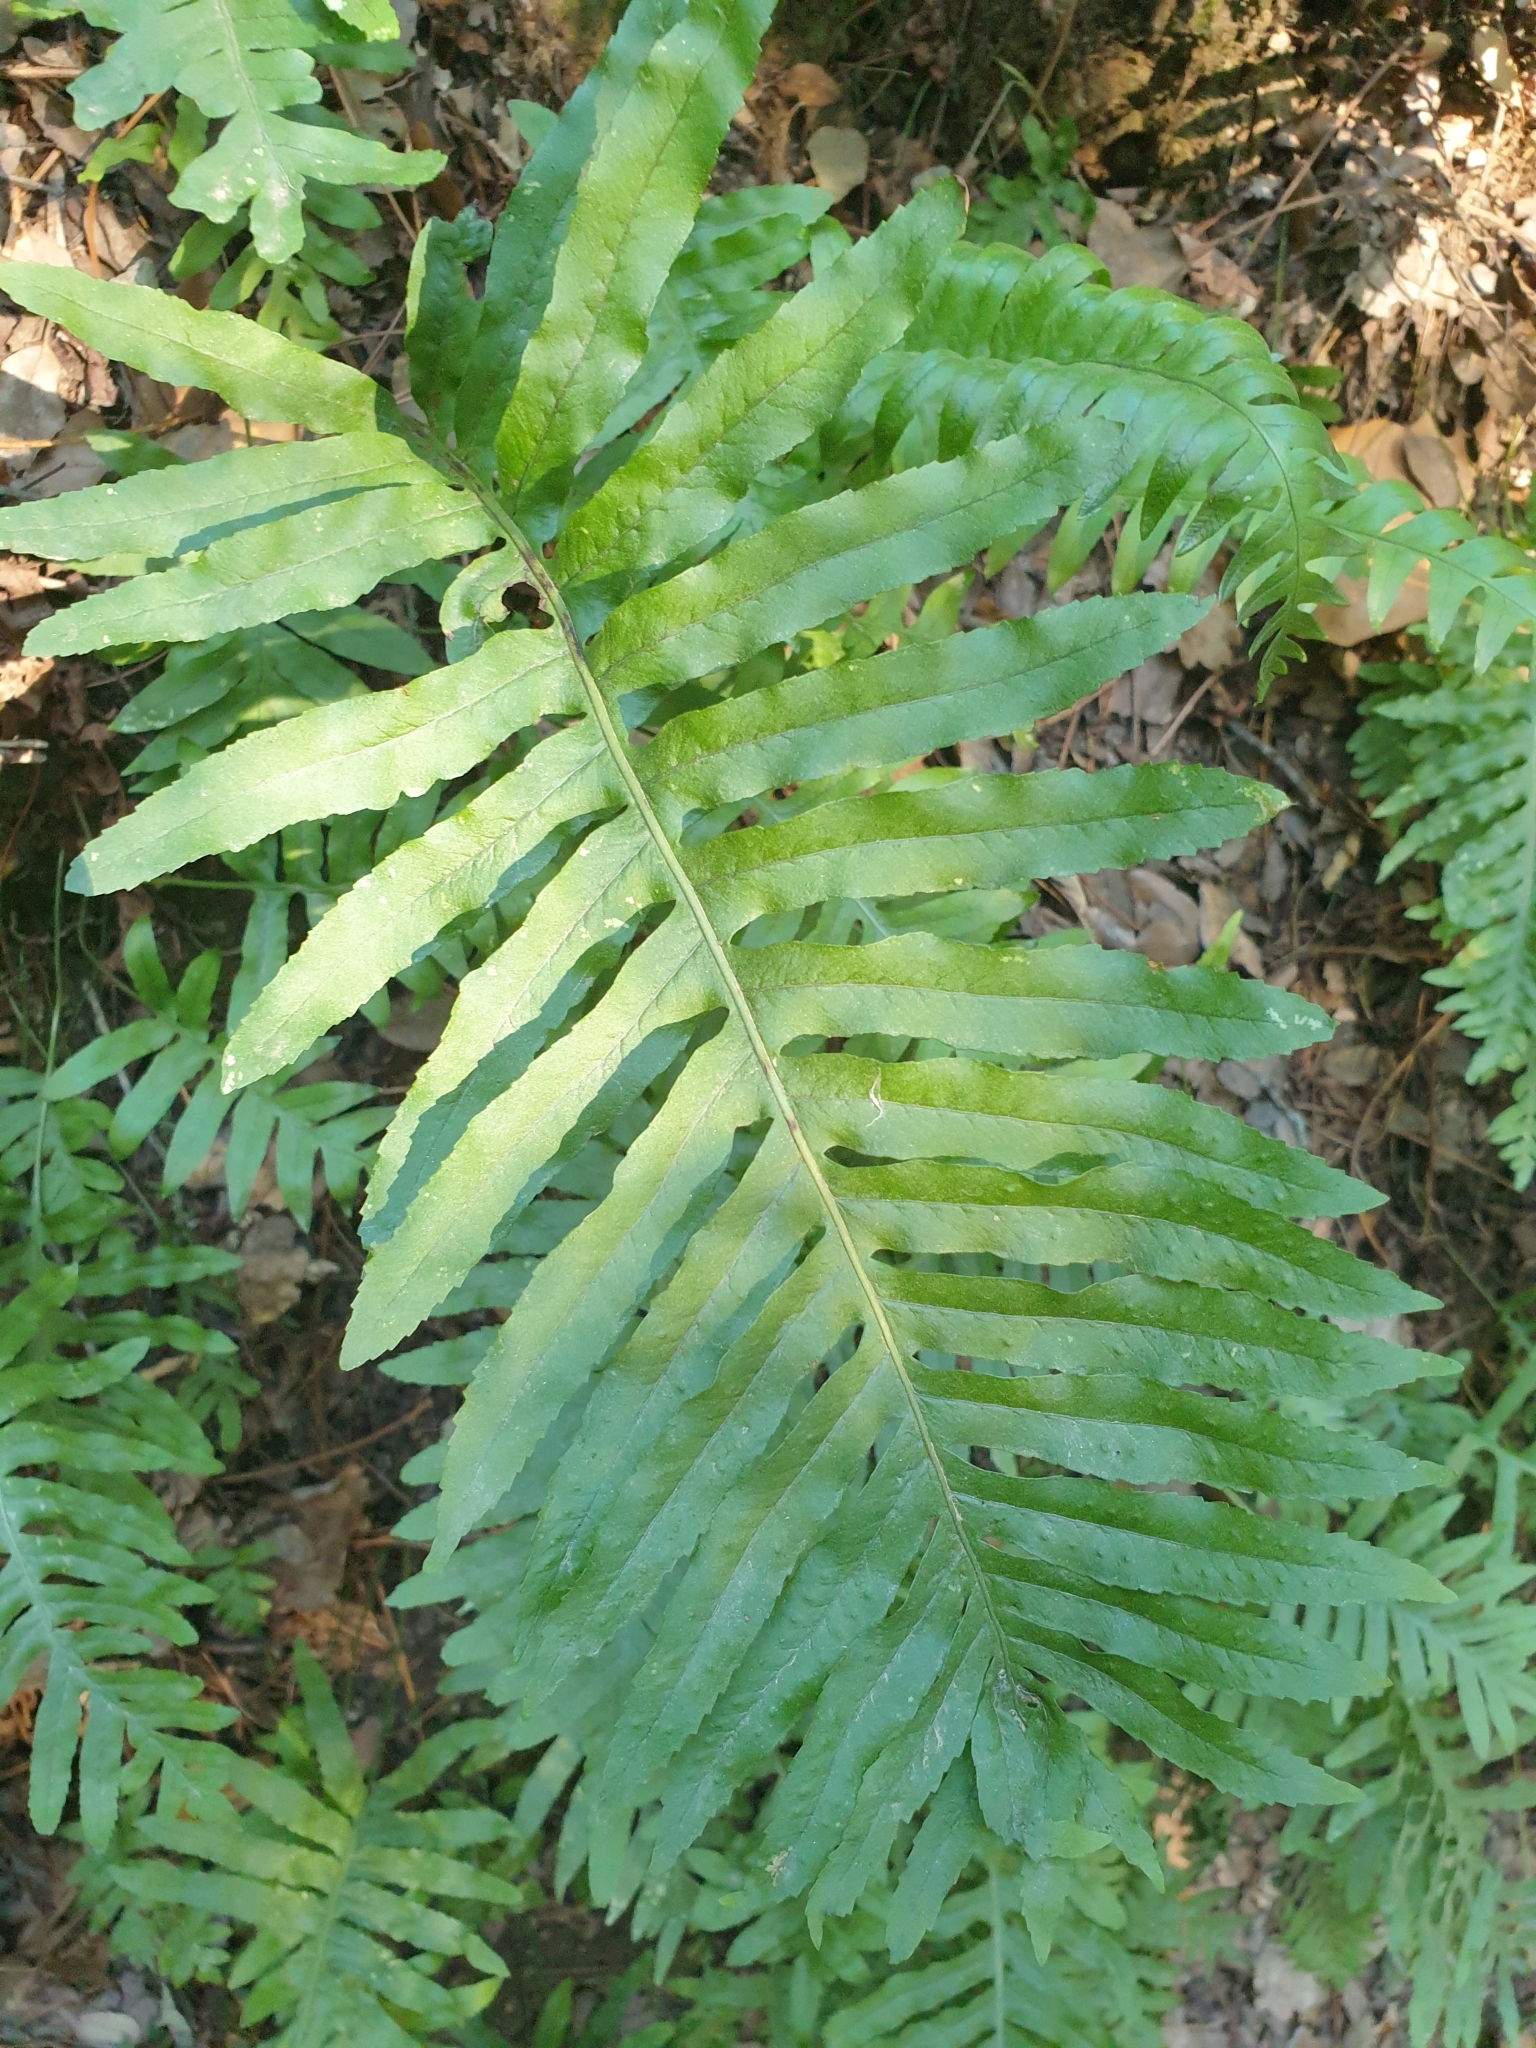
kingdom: Plantae
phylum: Tracheophyta
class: Polypodiopsida
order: Polypodiales
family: Polypodiaceae
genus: Polypodium
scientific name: Polypodium cambricum
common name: Southern polypody
